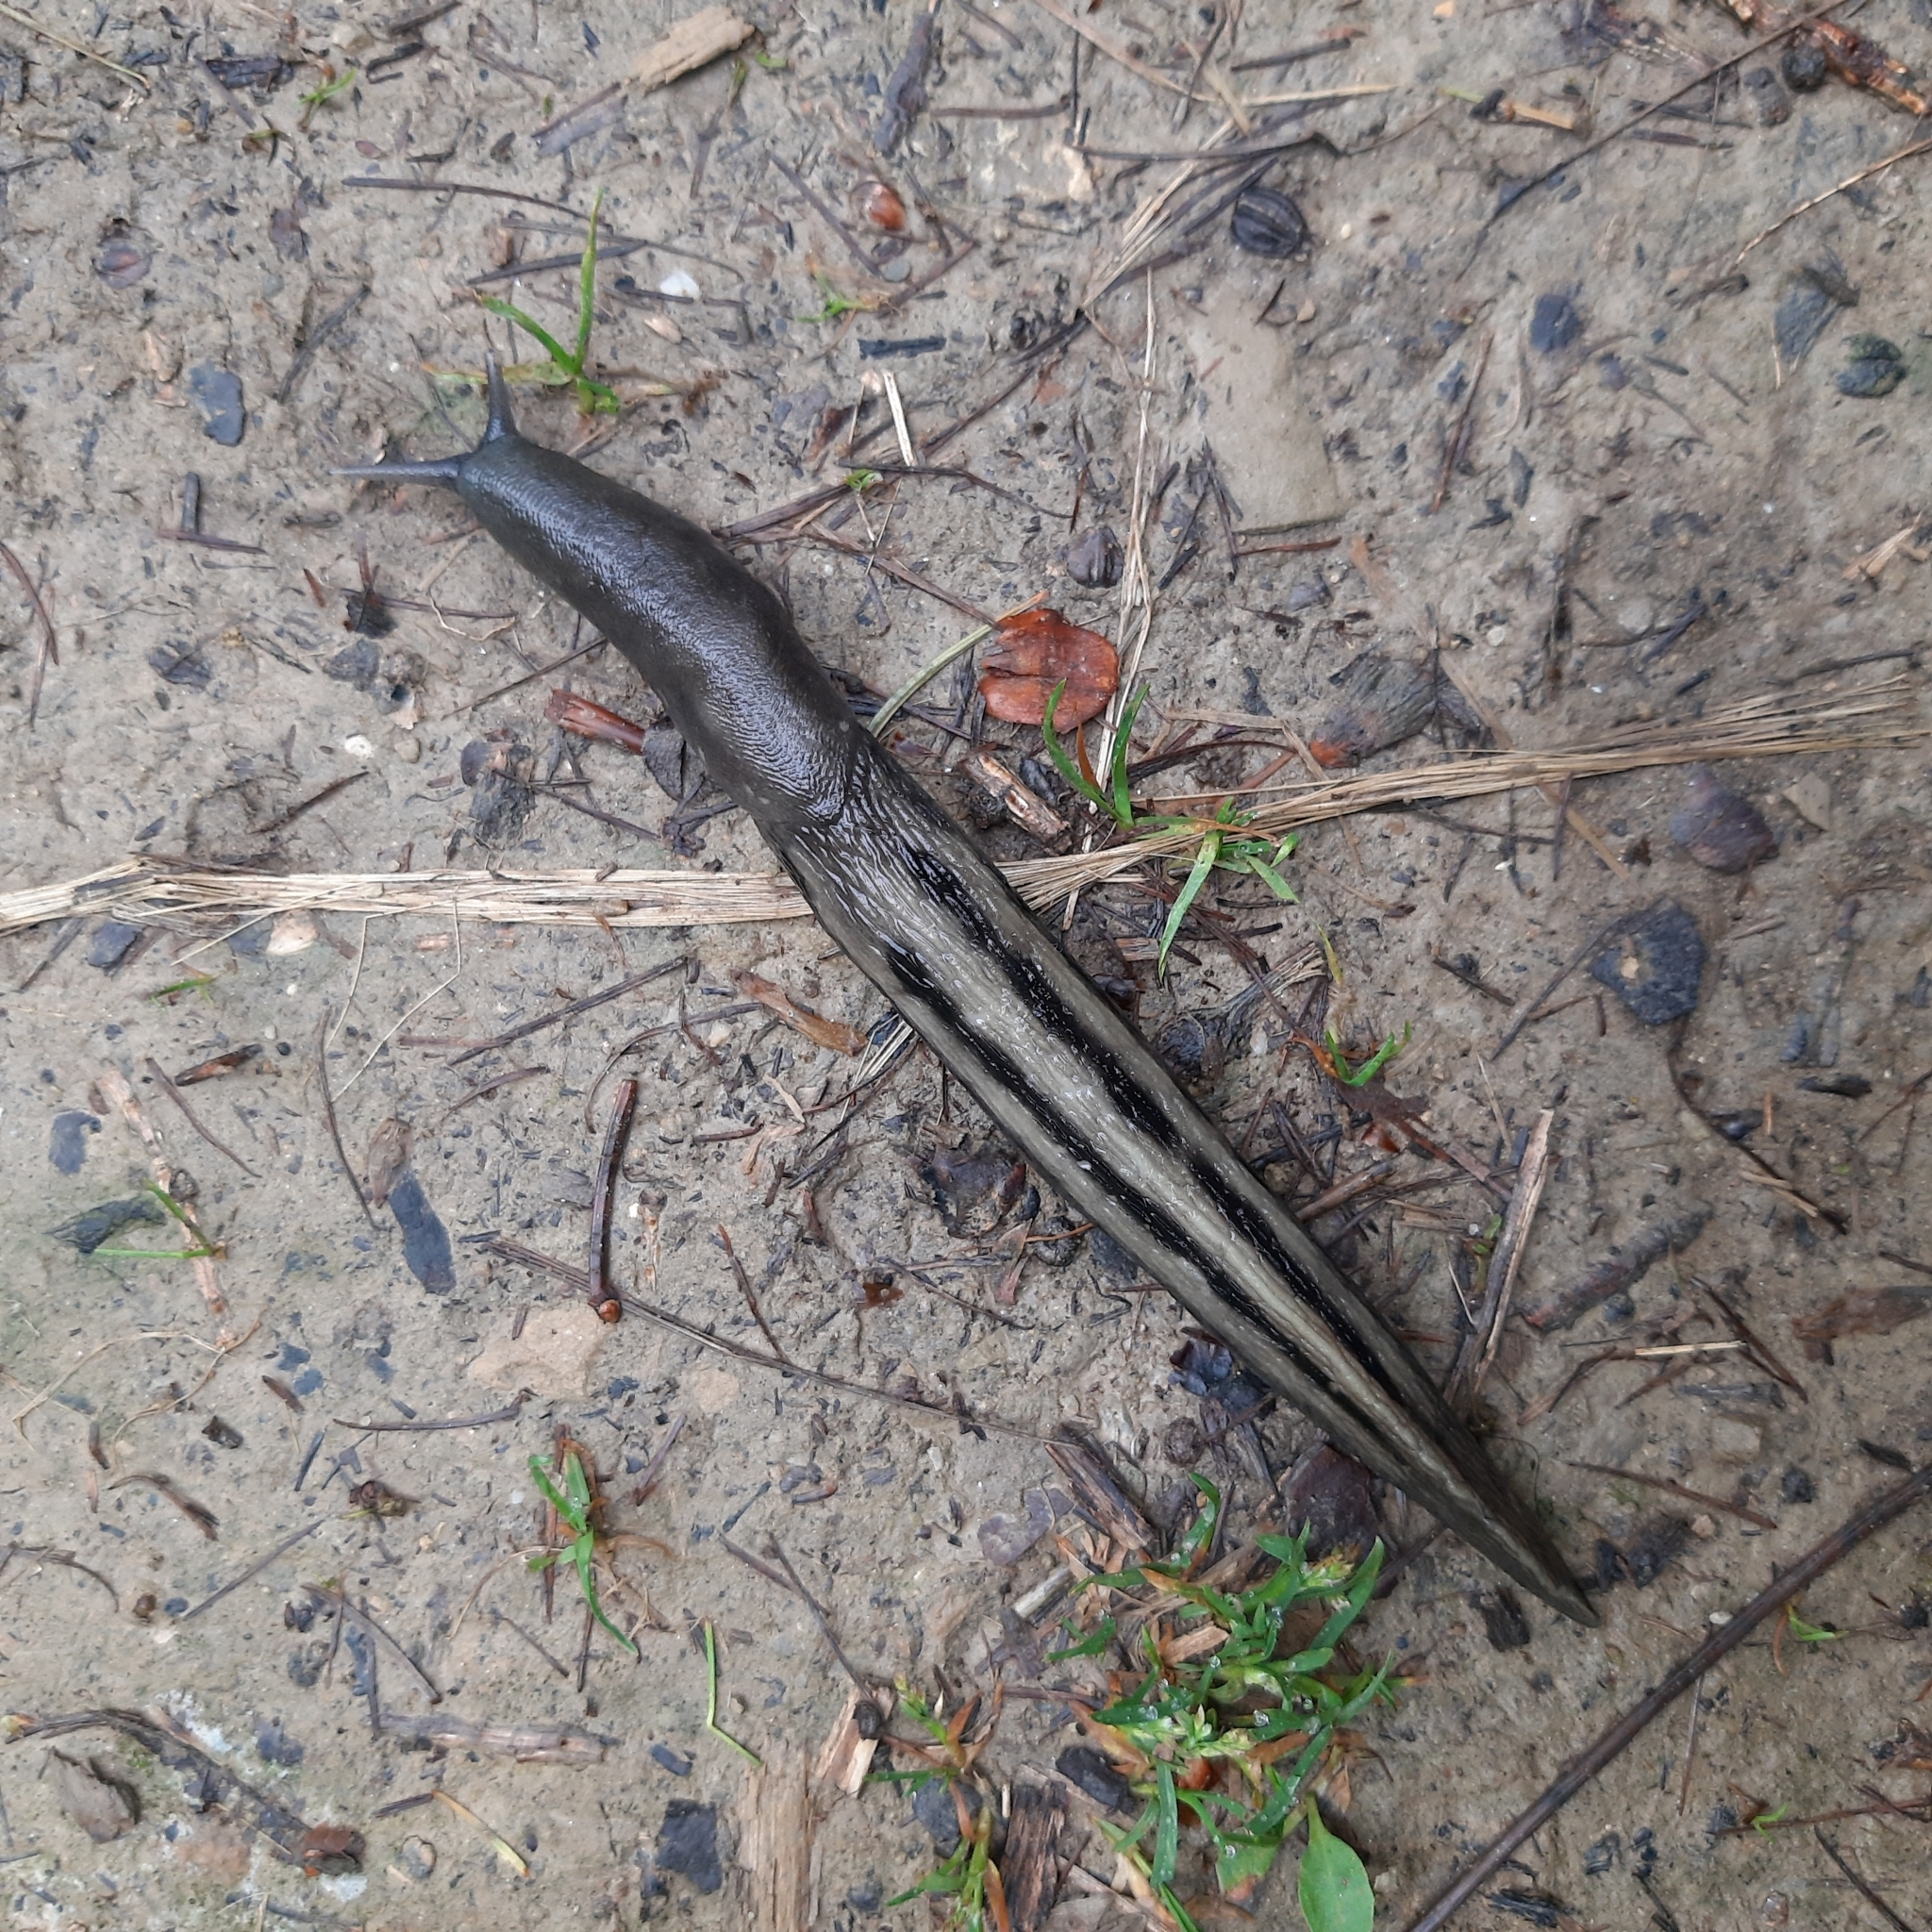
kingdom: Animalia
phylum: Mollusca
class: Gastropoda
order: Stylommatophora
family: Limacidae
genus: Limax
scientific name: Limax cinereoniger
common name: Ash-black slug
